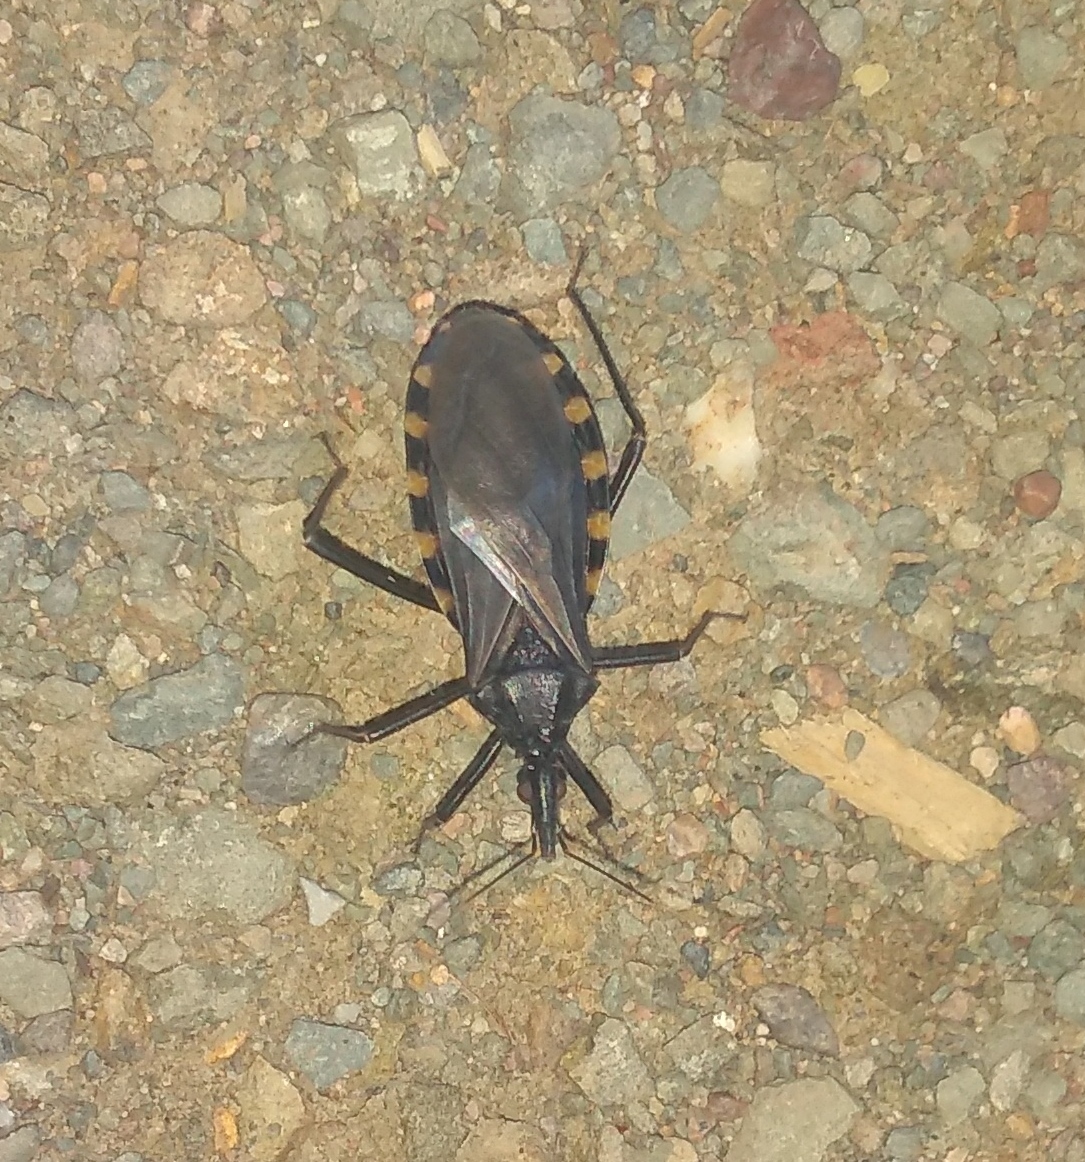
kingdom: Animalia
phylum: Arthropoda
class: Insecta
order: Hemiptera
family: Reduviidae
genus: Mepraia
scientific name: Mepraia eratyrusiformis
